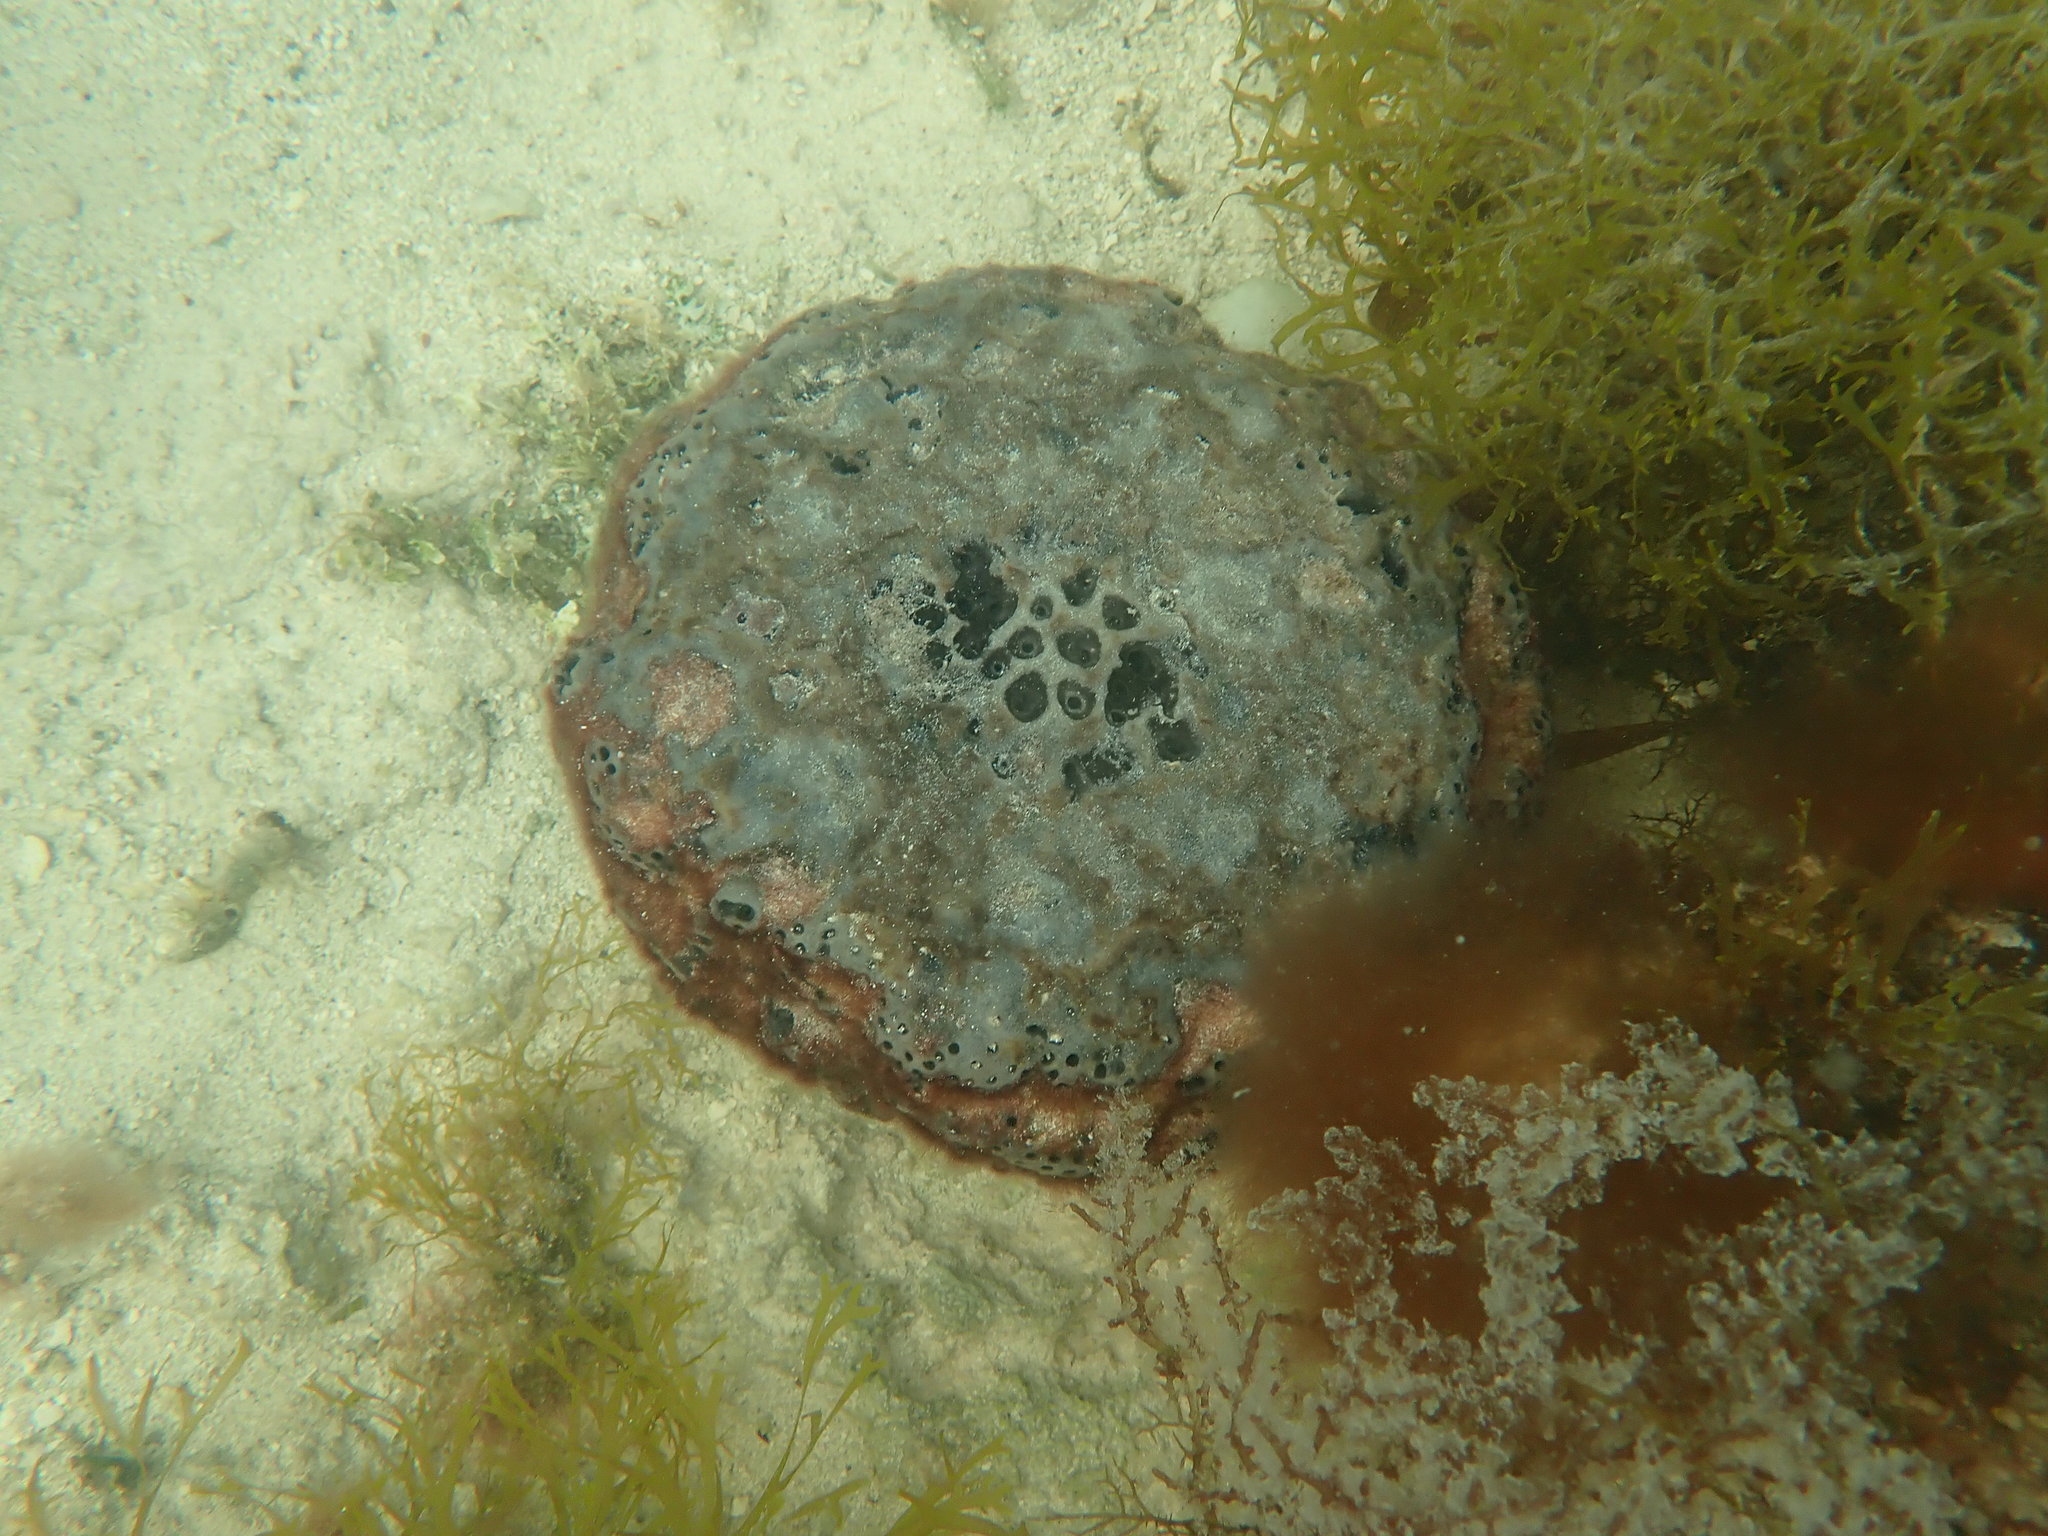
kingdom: Animalia
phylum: Porifera
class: Demospongiae
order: Clionaida
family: Clionaidae
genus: Spheciospongia
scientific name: Spheciospongia vesparium
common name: Manjack
